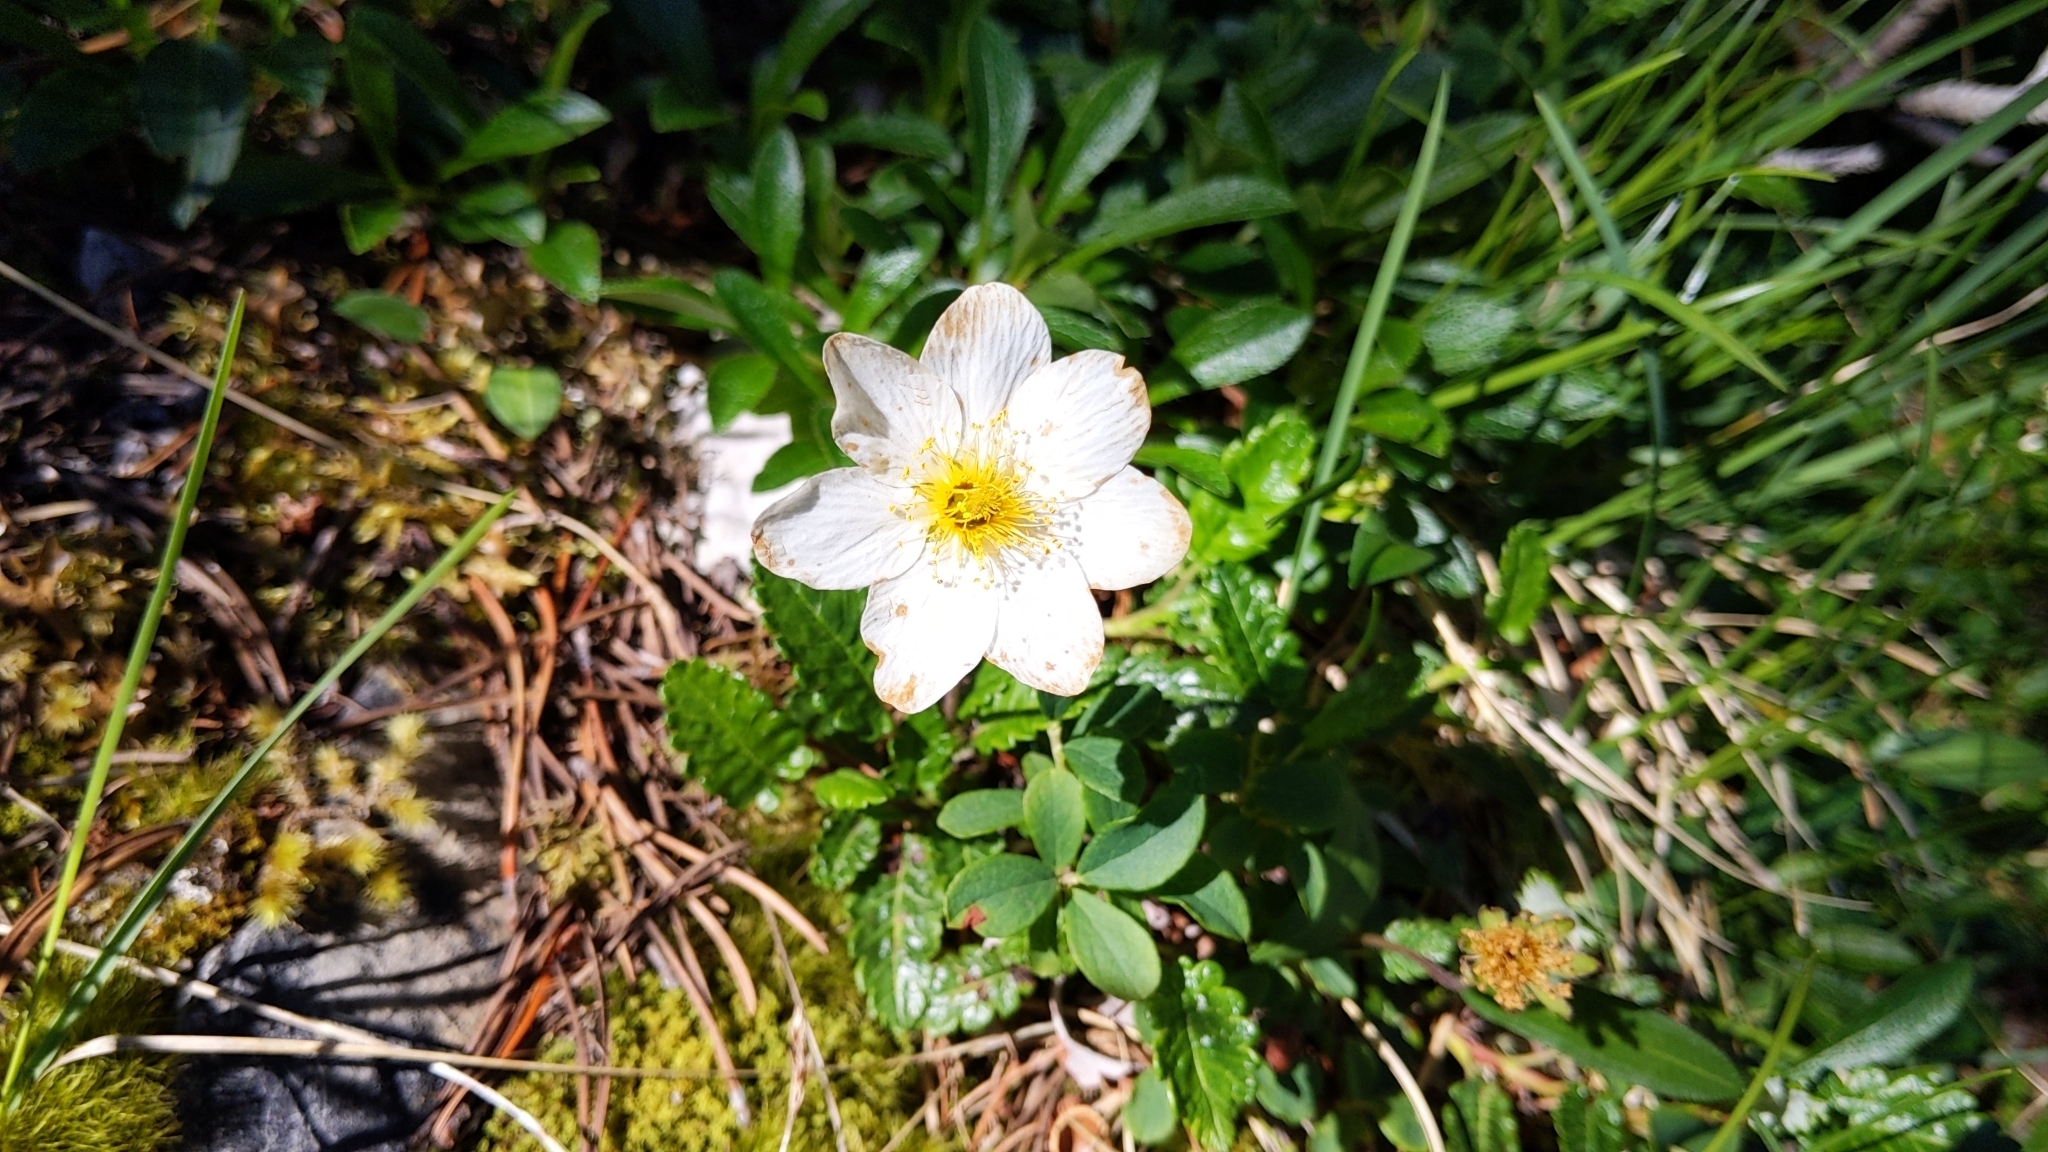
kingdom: Plantae
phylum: Tracheophyta
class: Magnoliopsida
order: Rosales
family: Rosaceae
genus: Dryas
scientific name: Dryas octopetala
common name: Eight-petal mountain-avens
